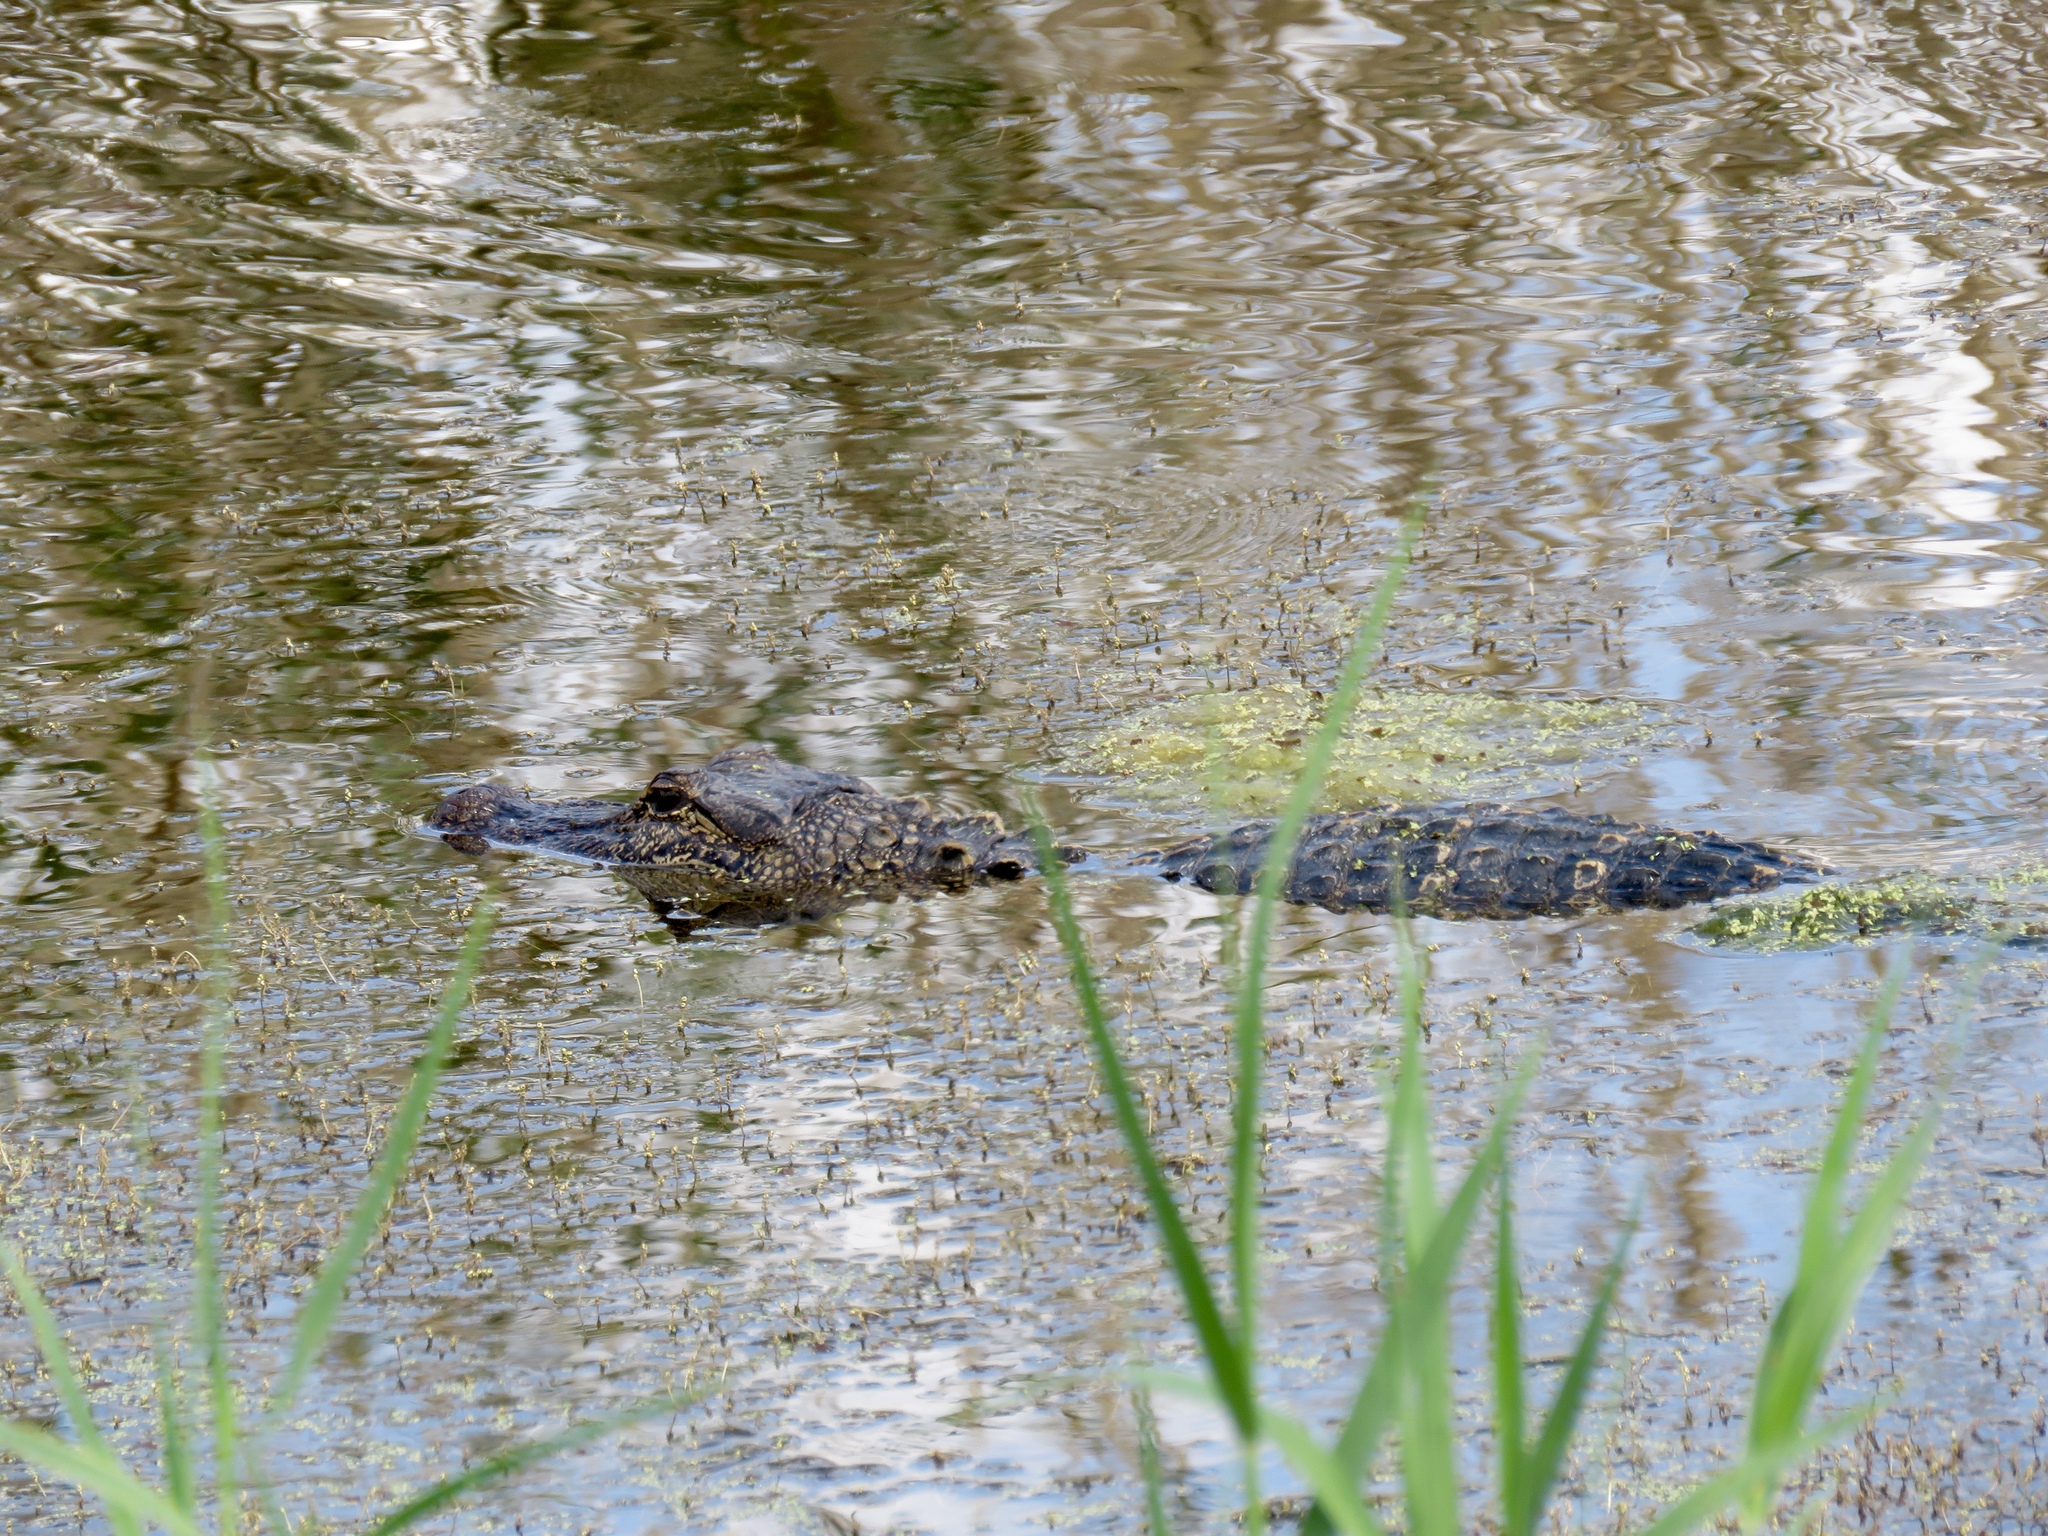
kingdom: Animalia
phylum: Chordata
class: Crocodylia
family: Alligatoridae
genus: Alligator
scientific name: Alligator mississippiensis
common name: American alligator
